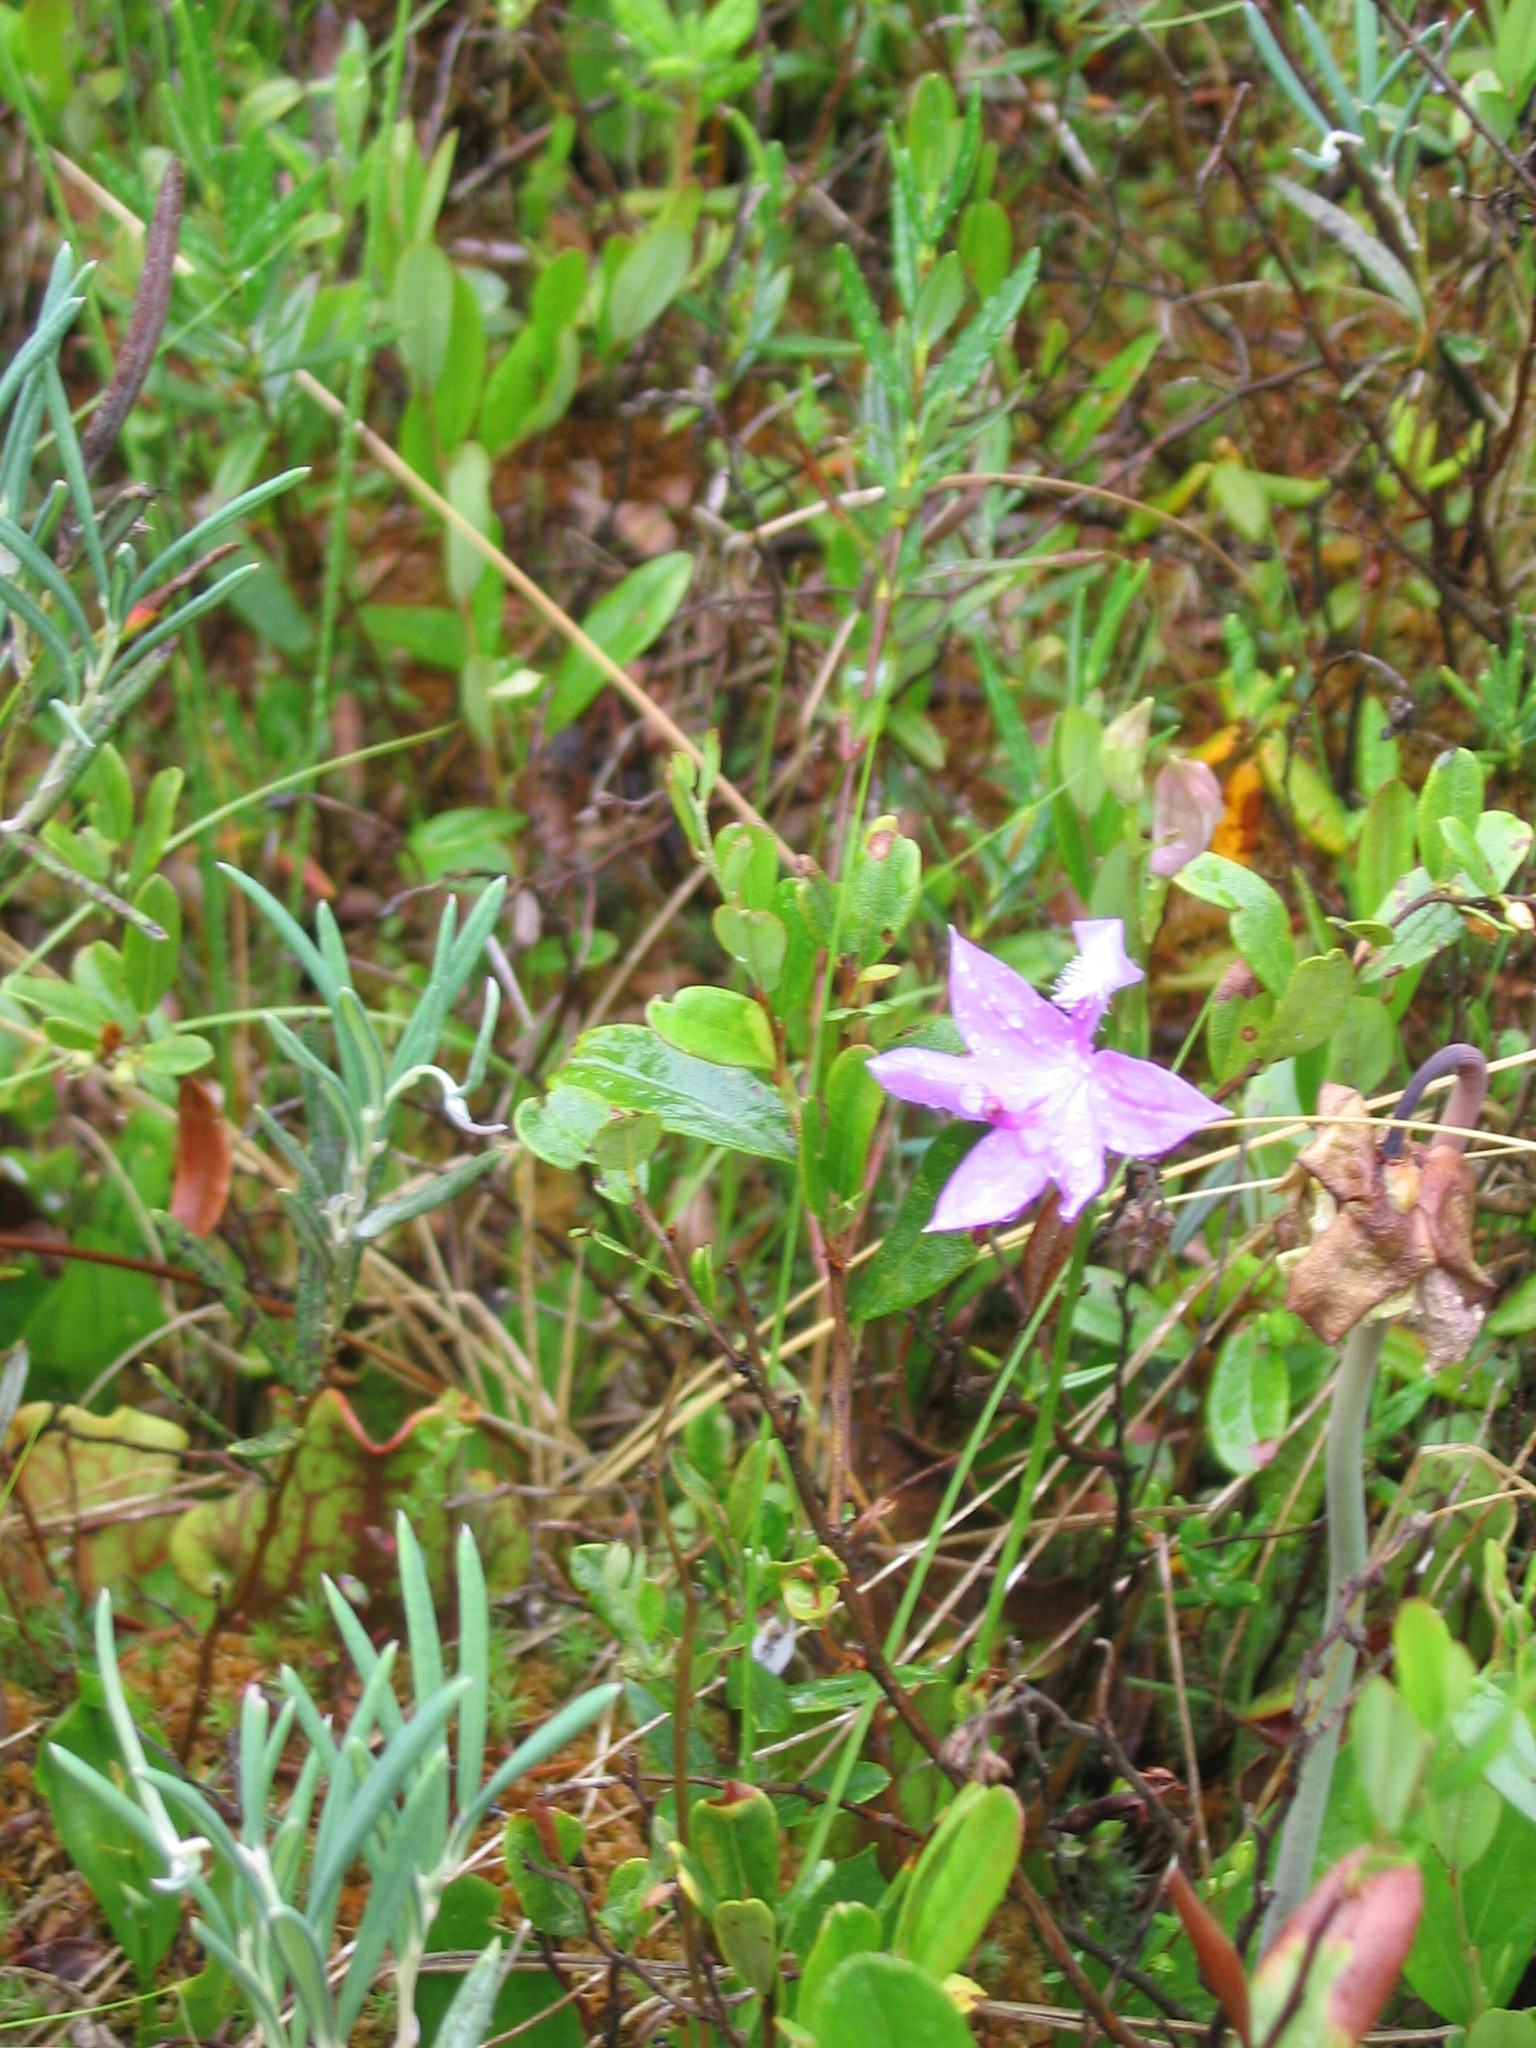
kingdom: Plantae
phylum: Tracheophyta
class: Liliopsida
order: Asparagales
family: Orchidaceae
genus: Calopogon
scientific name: Calopogon tuberosus
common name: Grass-pink
